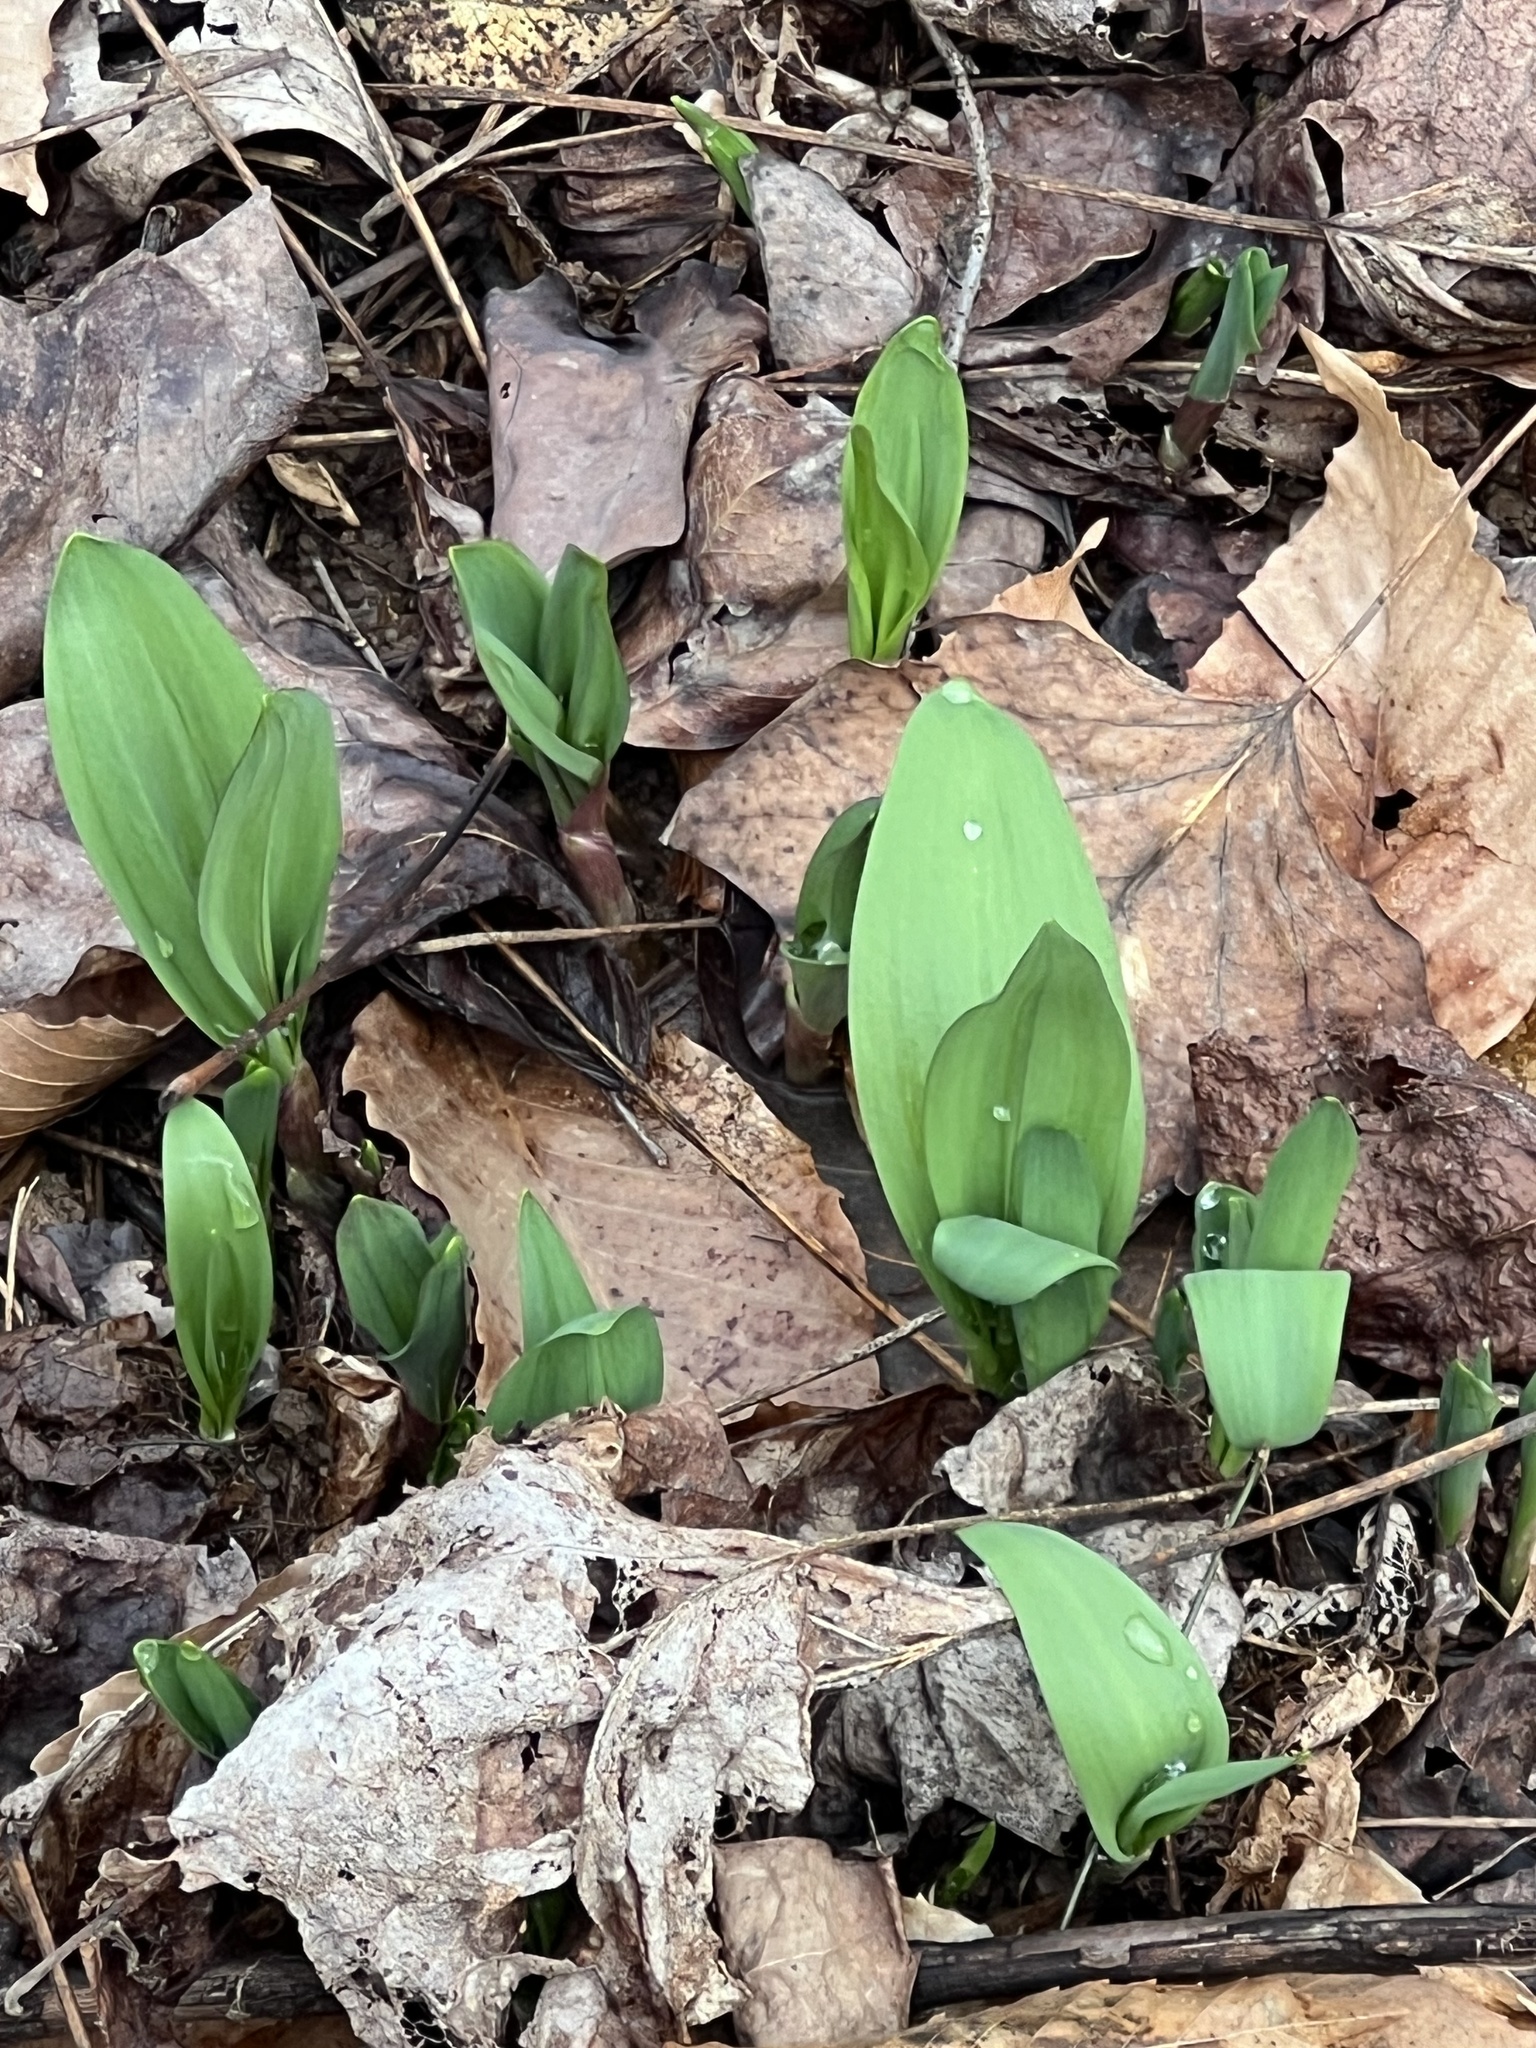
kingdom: Plantae
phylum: Tracheophyta
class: Liliopsida
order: Asparagales
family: Amaryllidaceae
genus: Allium
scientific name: Allium tricoccum
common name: Ramp
